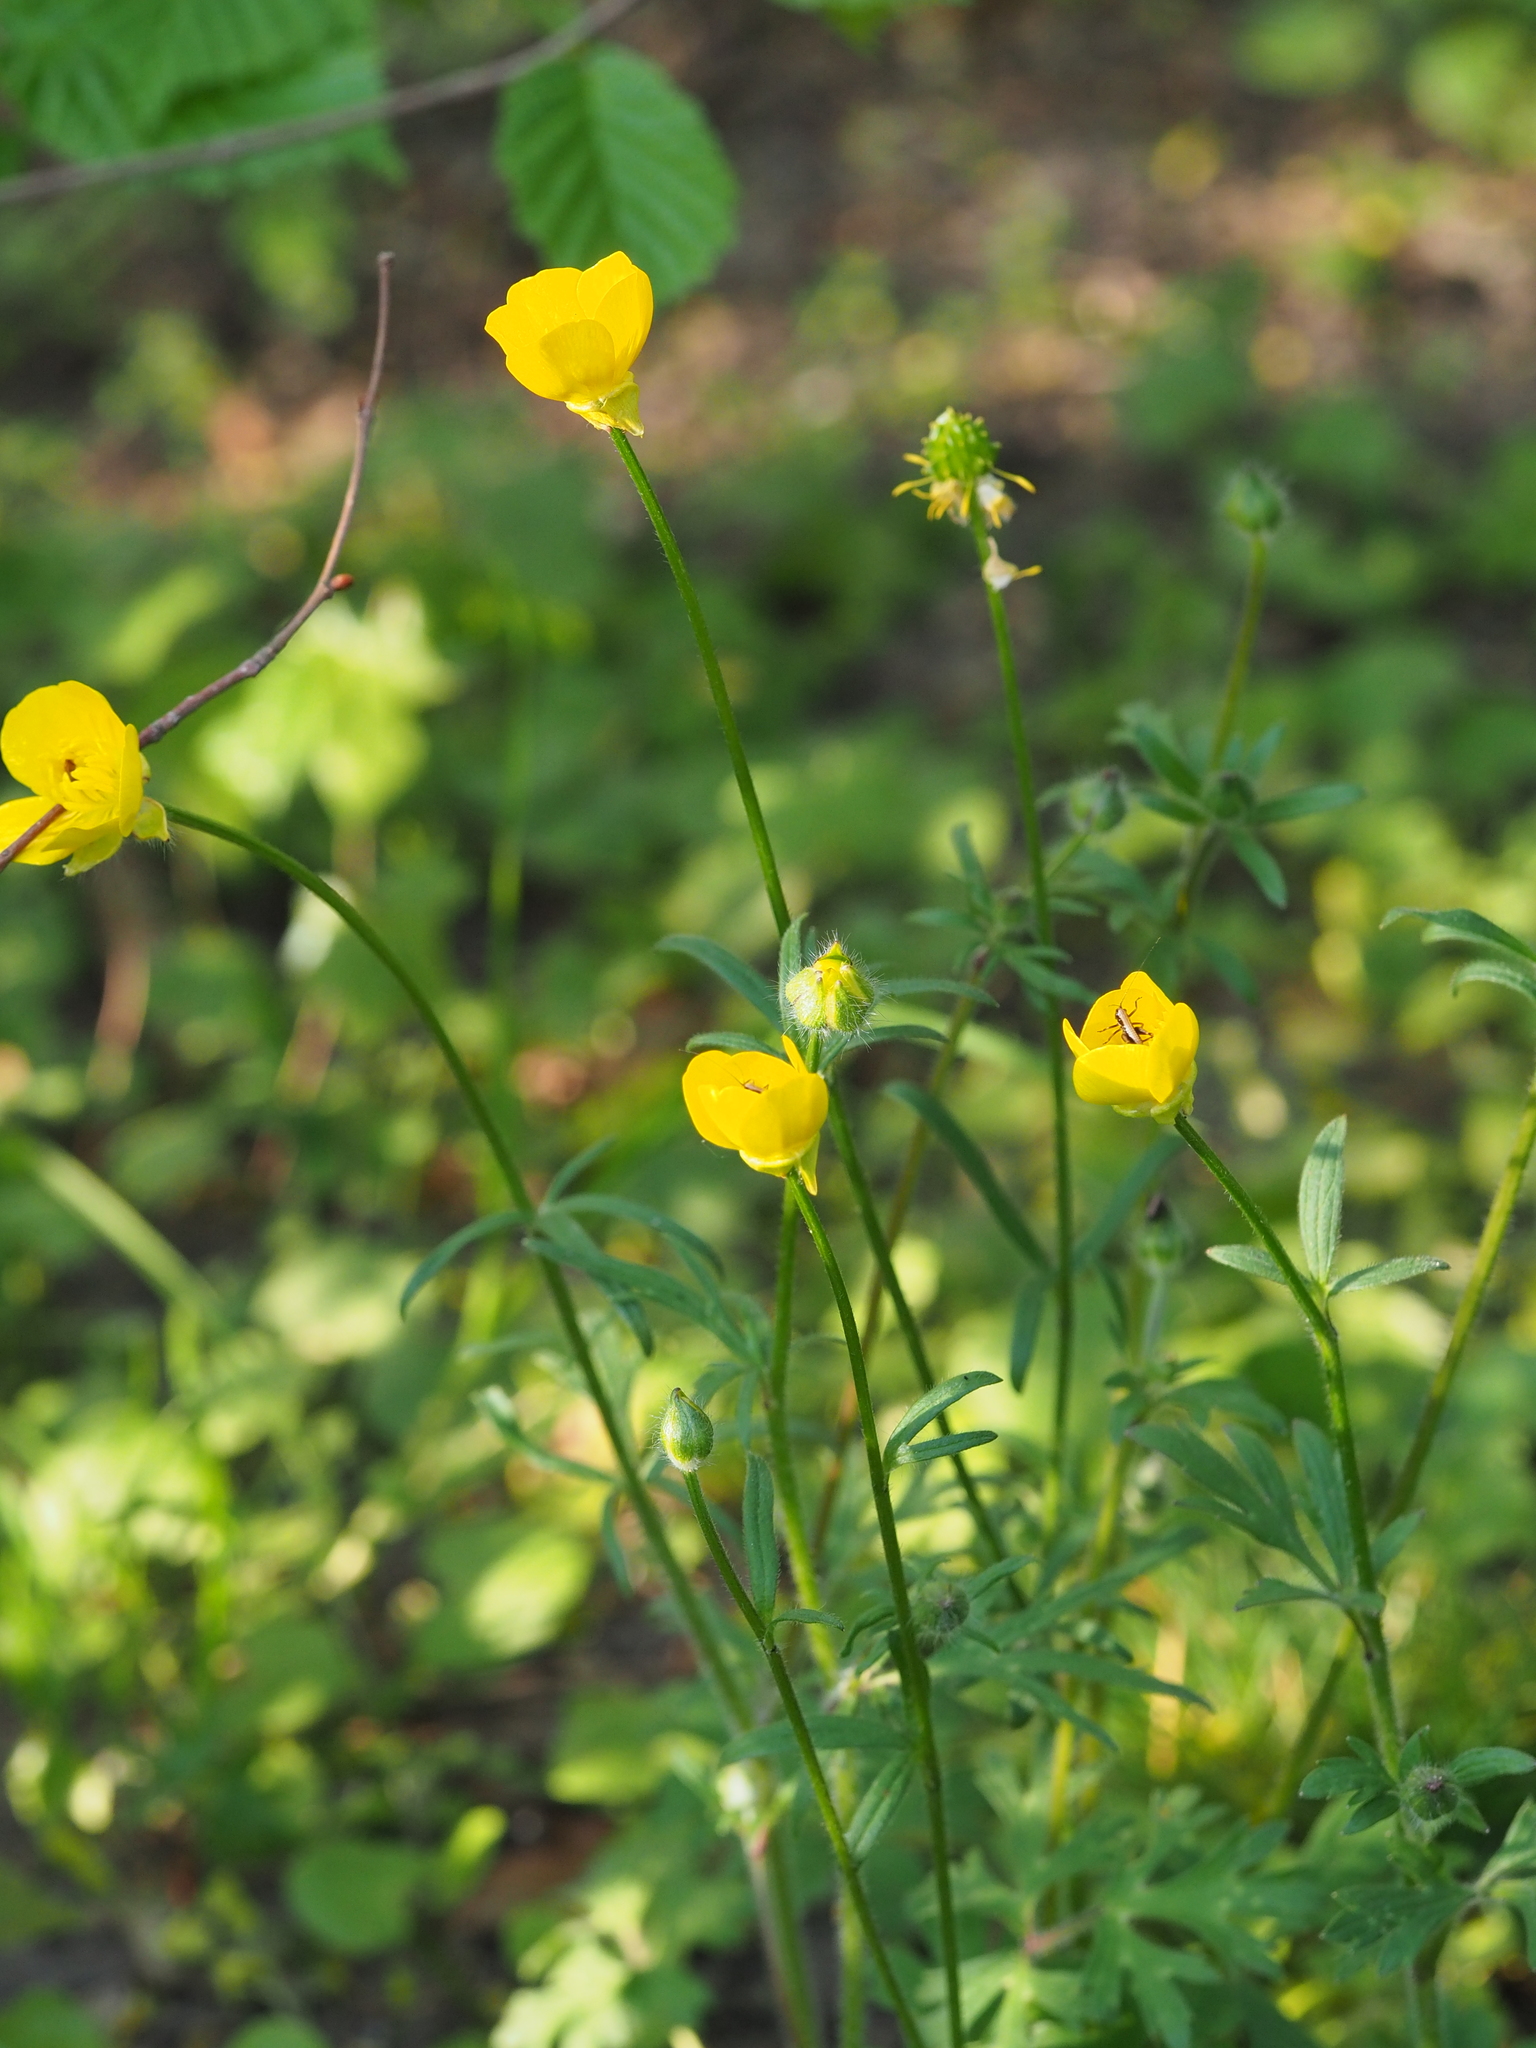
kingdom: Plantae
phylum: Tracheophyta
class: Magnoliopsida
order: Ranunculales
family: Ranunculaceae
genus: Ranunculus
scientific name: Ranunculus bulbosus
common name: Bulbous buttercup
